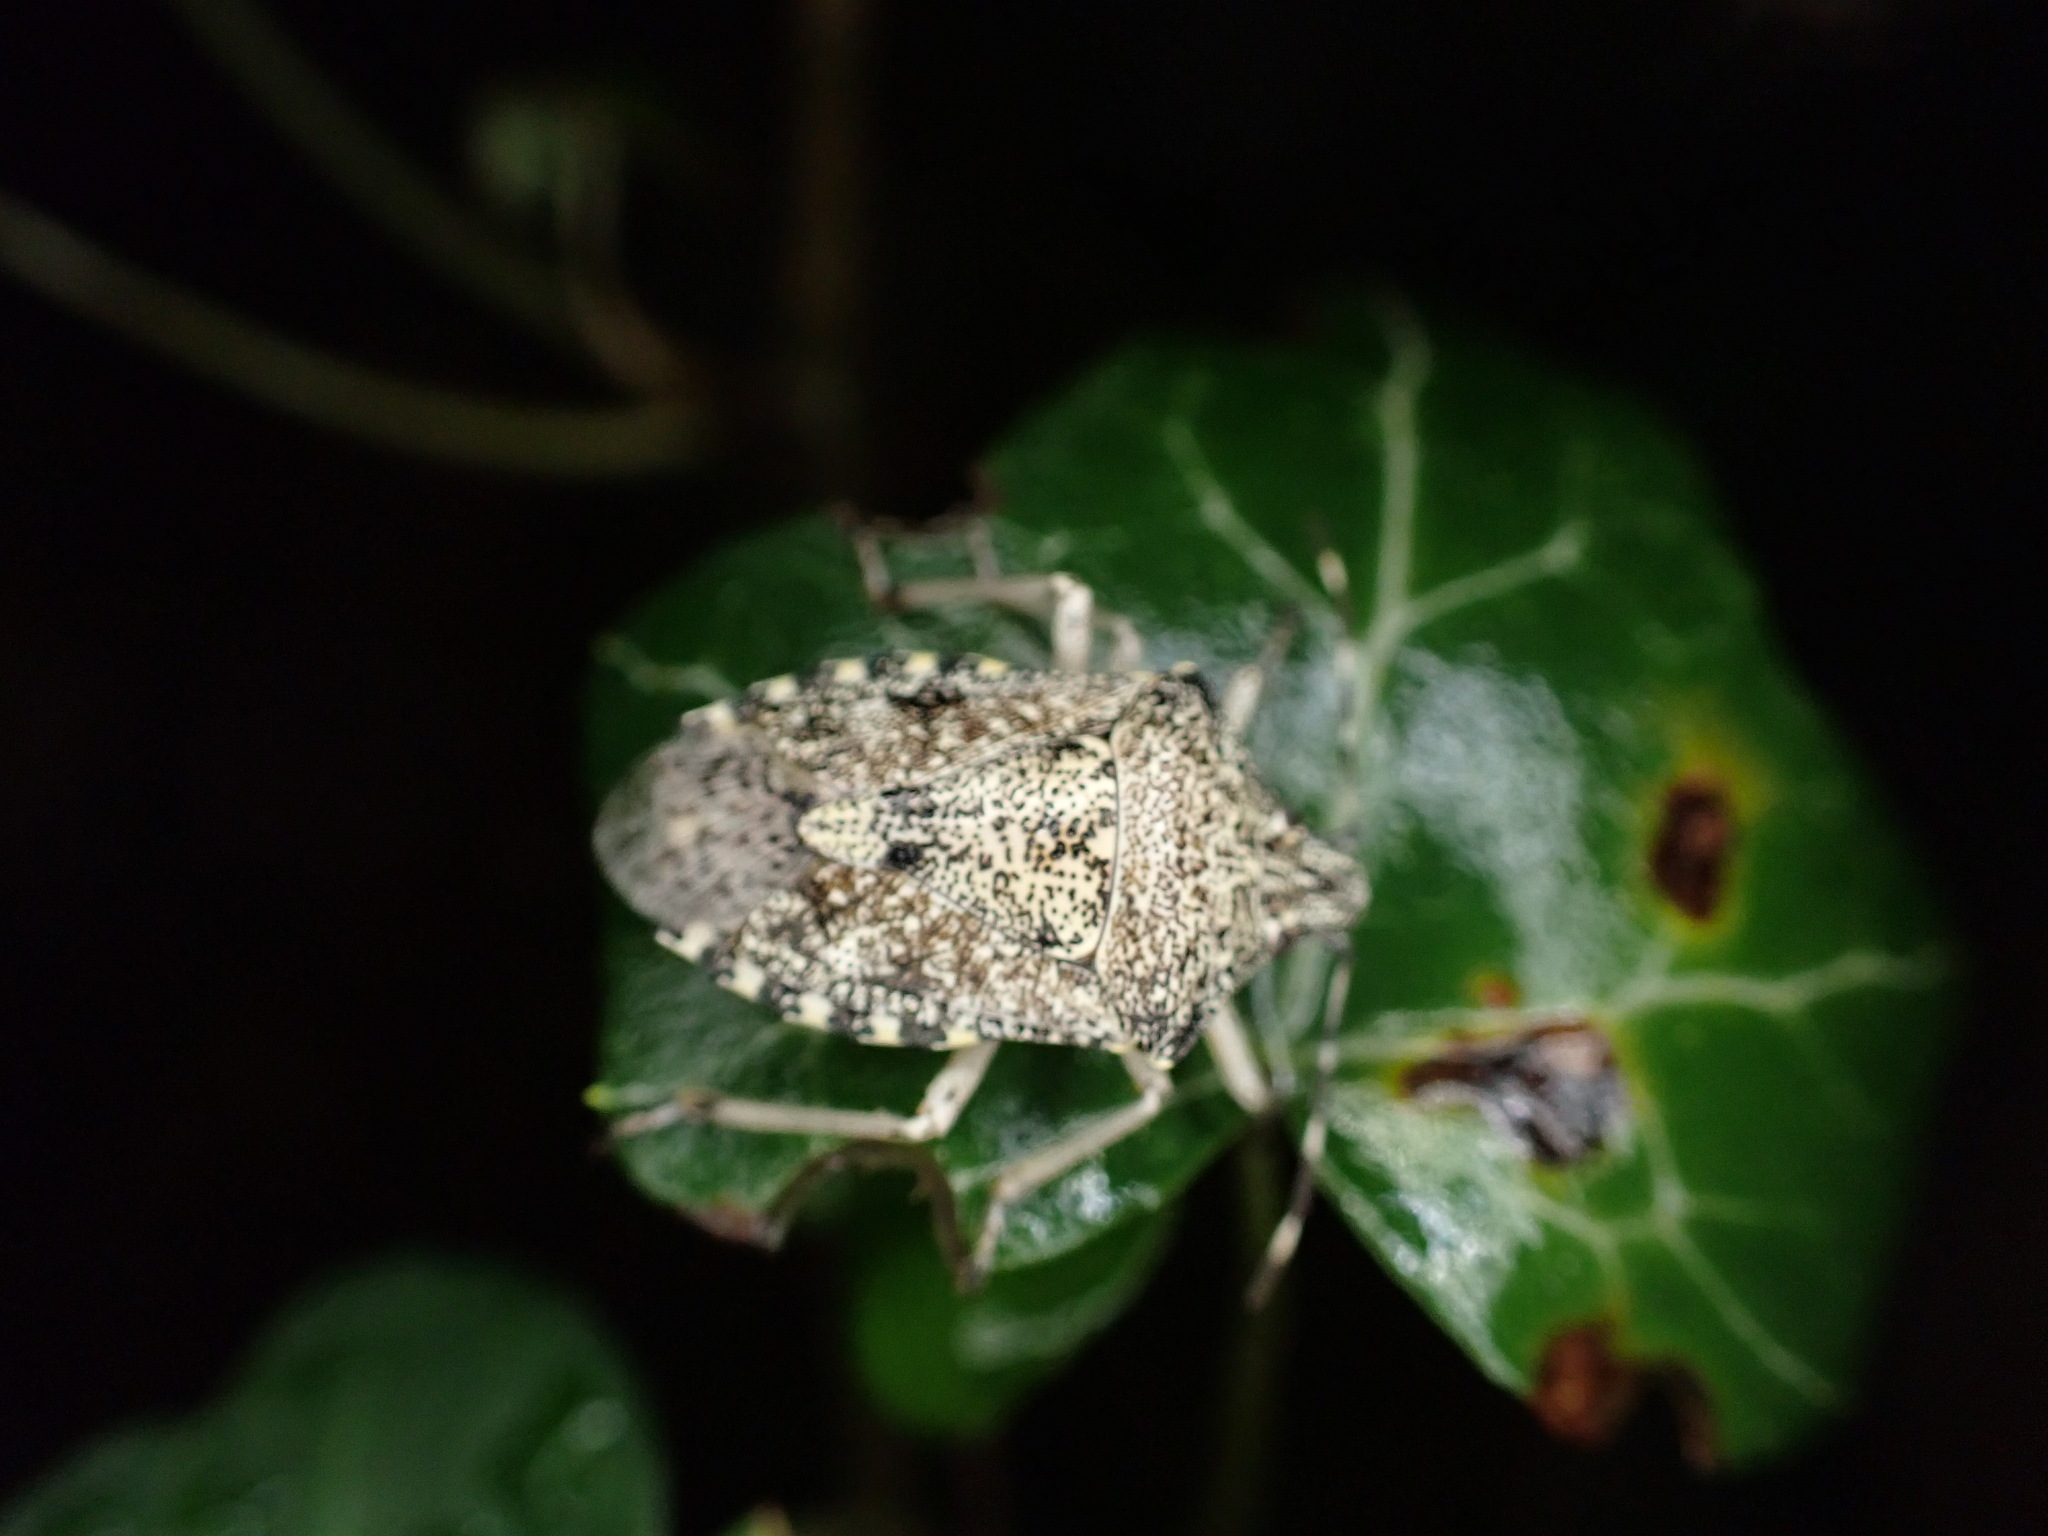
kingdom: Animalia
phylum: Arthropoda
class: Insecta
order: Hemiptera
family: Pentatomidae
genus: Rhaphigaster
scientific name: Rhaphigaster nebulosa
